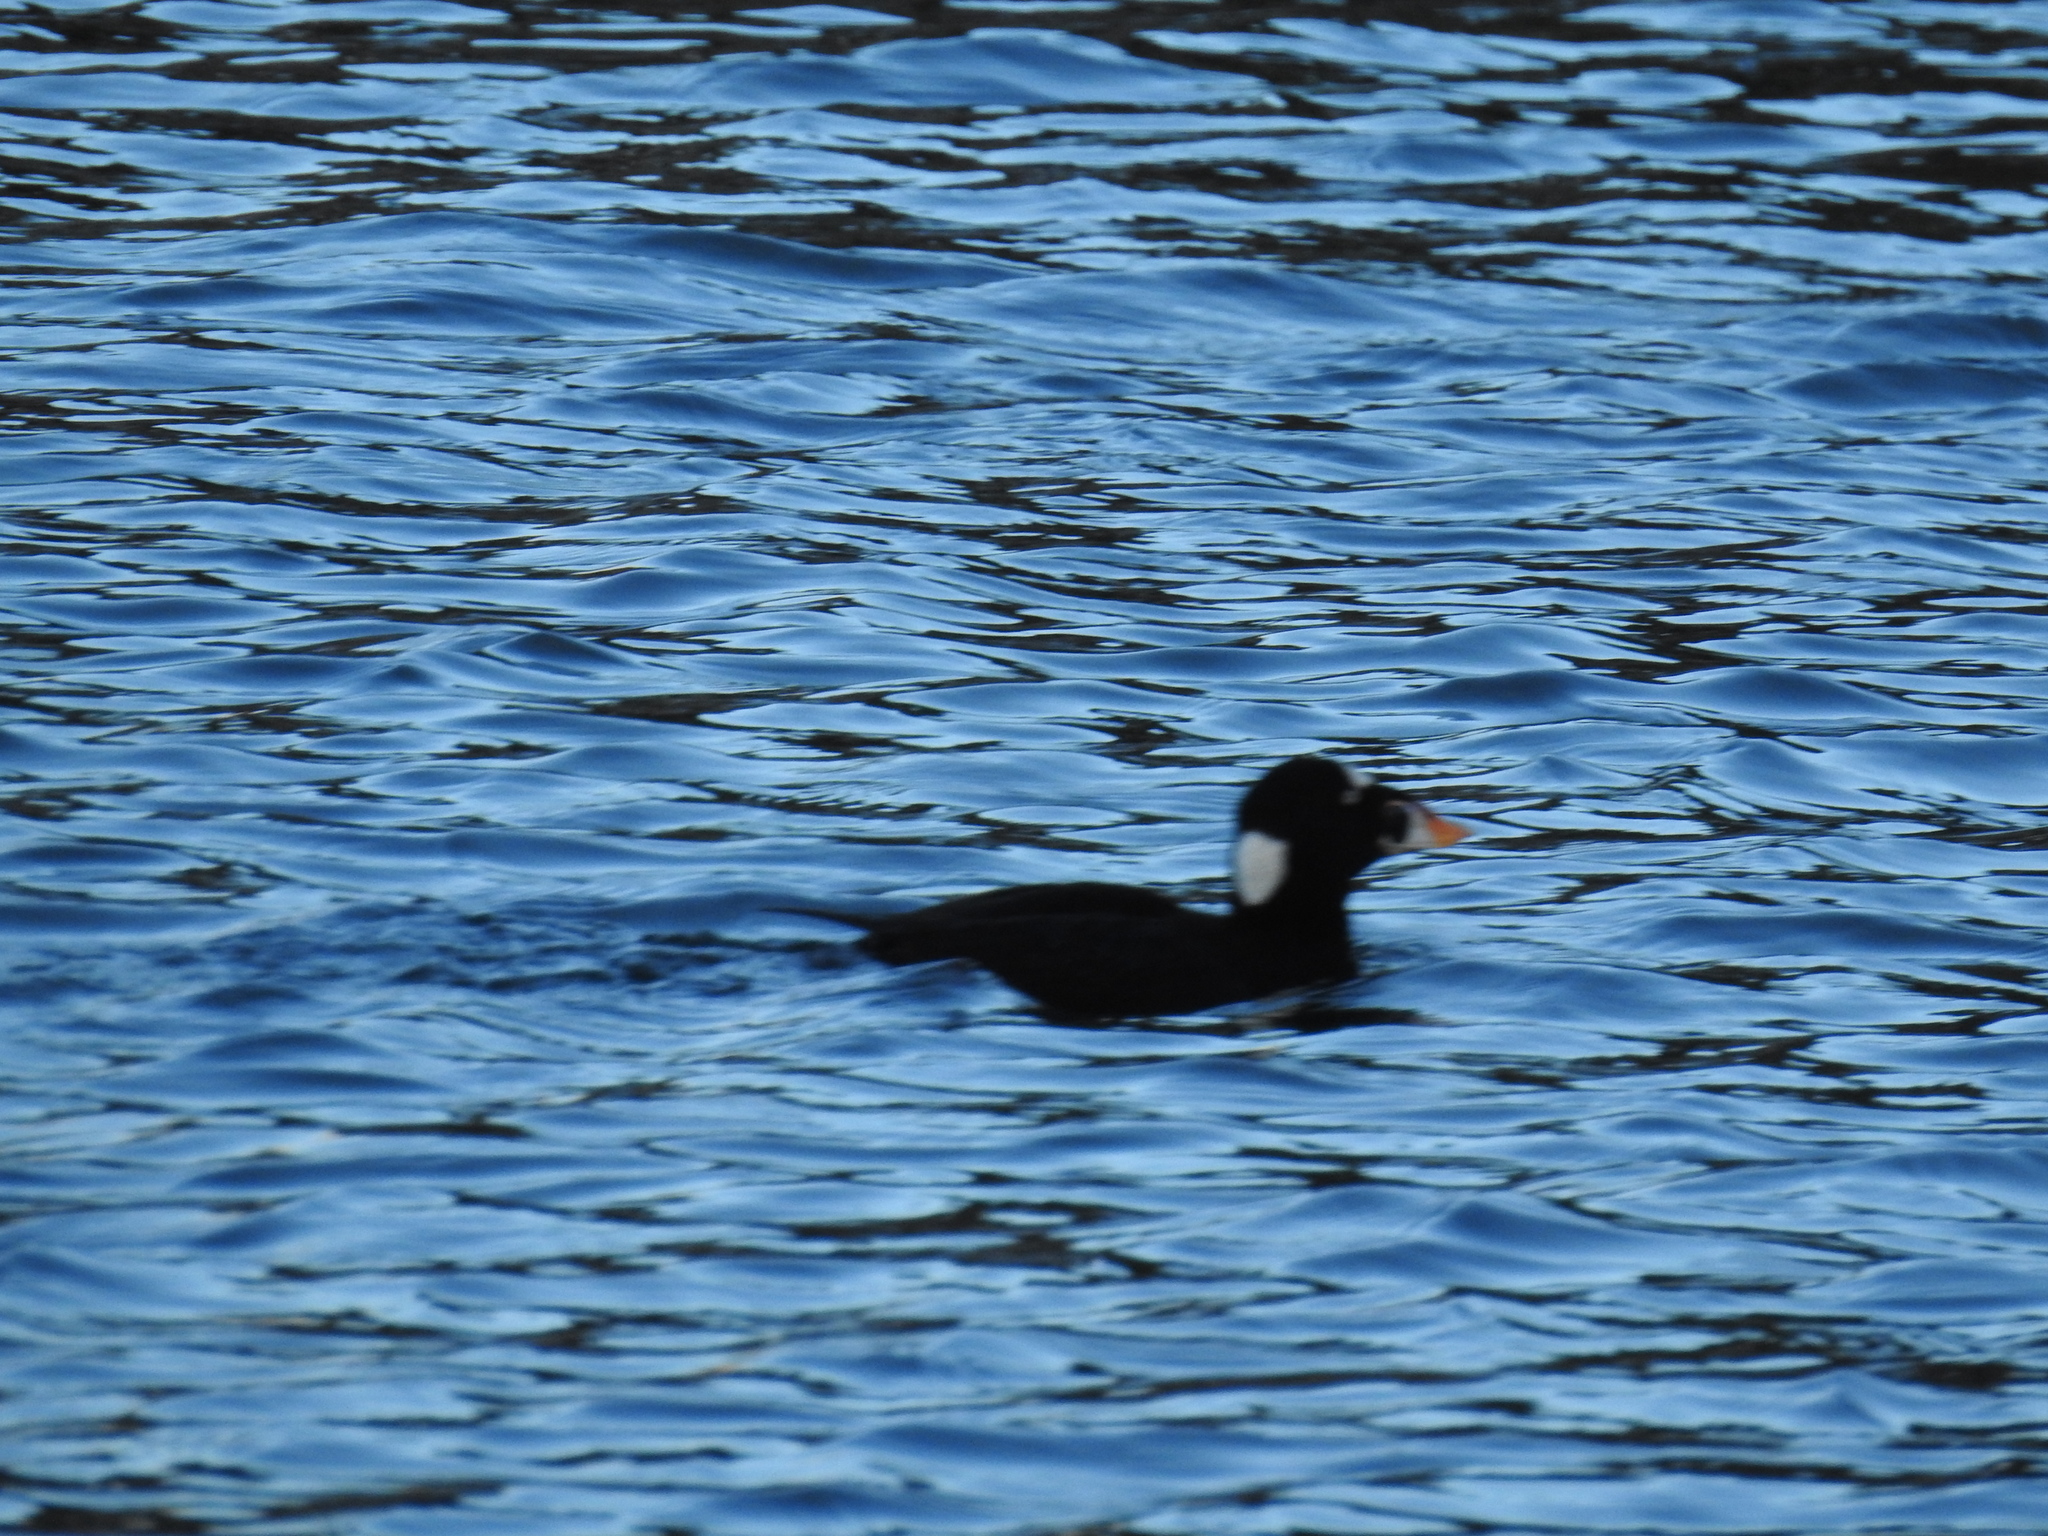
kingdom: Animalia
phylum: Chordata
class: Aves
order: Anseriformes
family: Anatidae
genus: Melanitta
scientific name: Melanitta perspicillata
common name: Surf scoter
